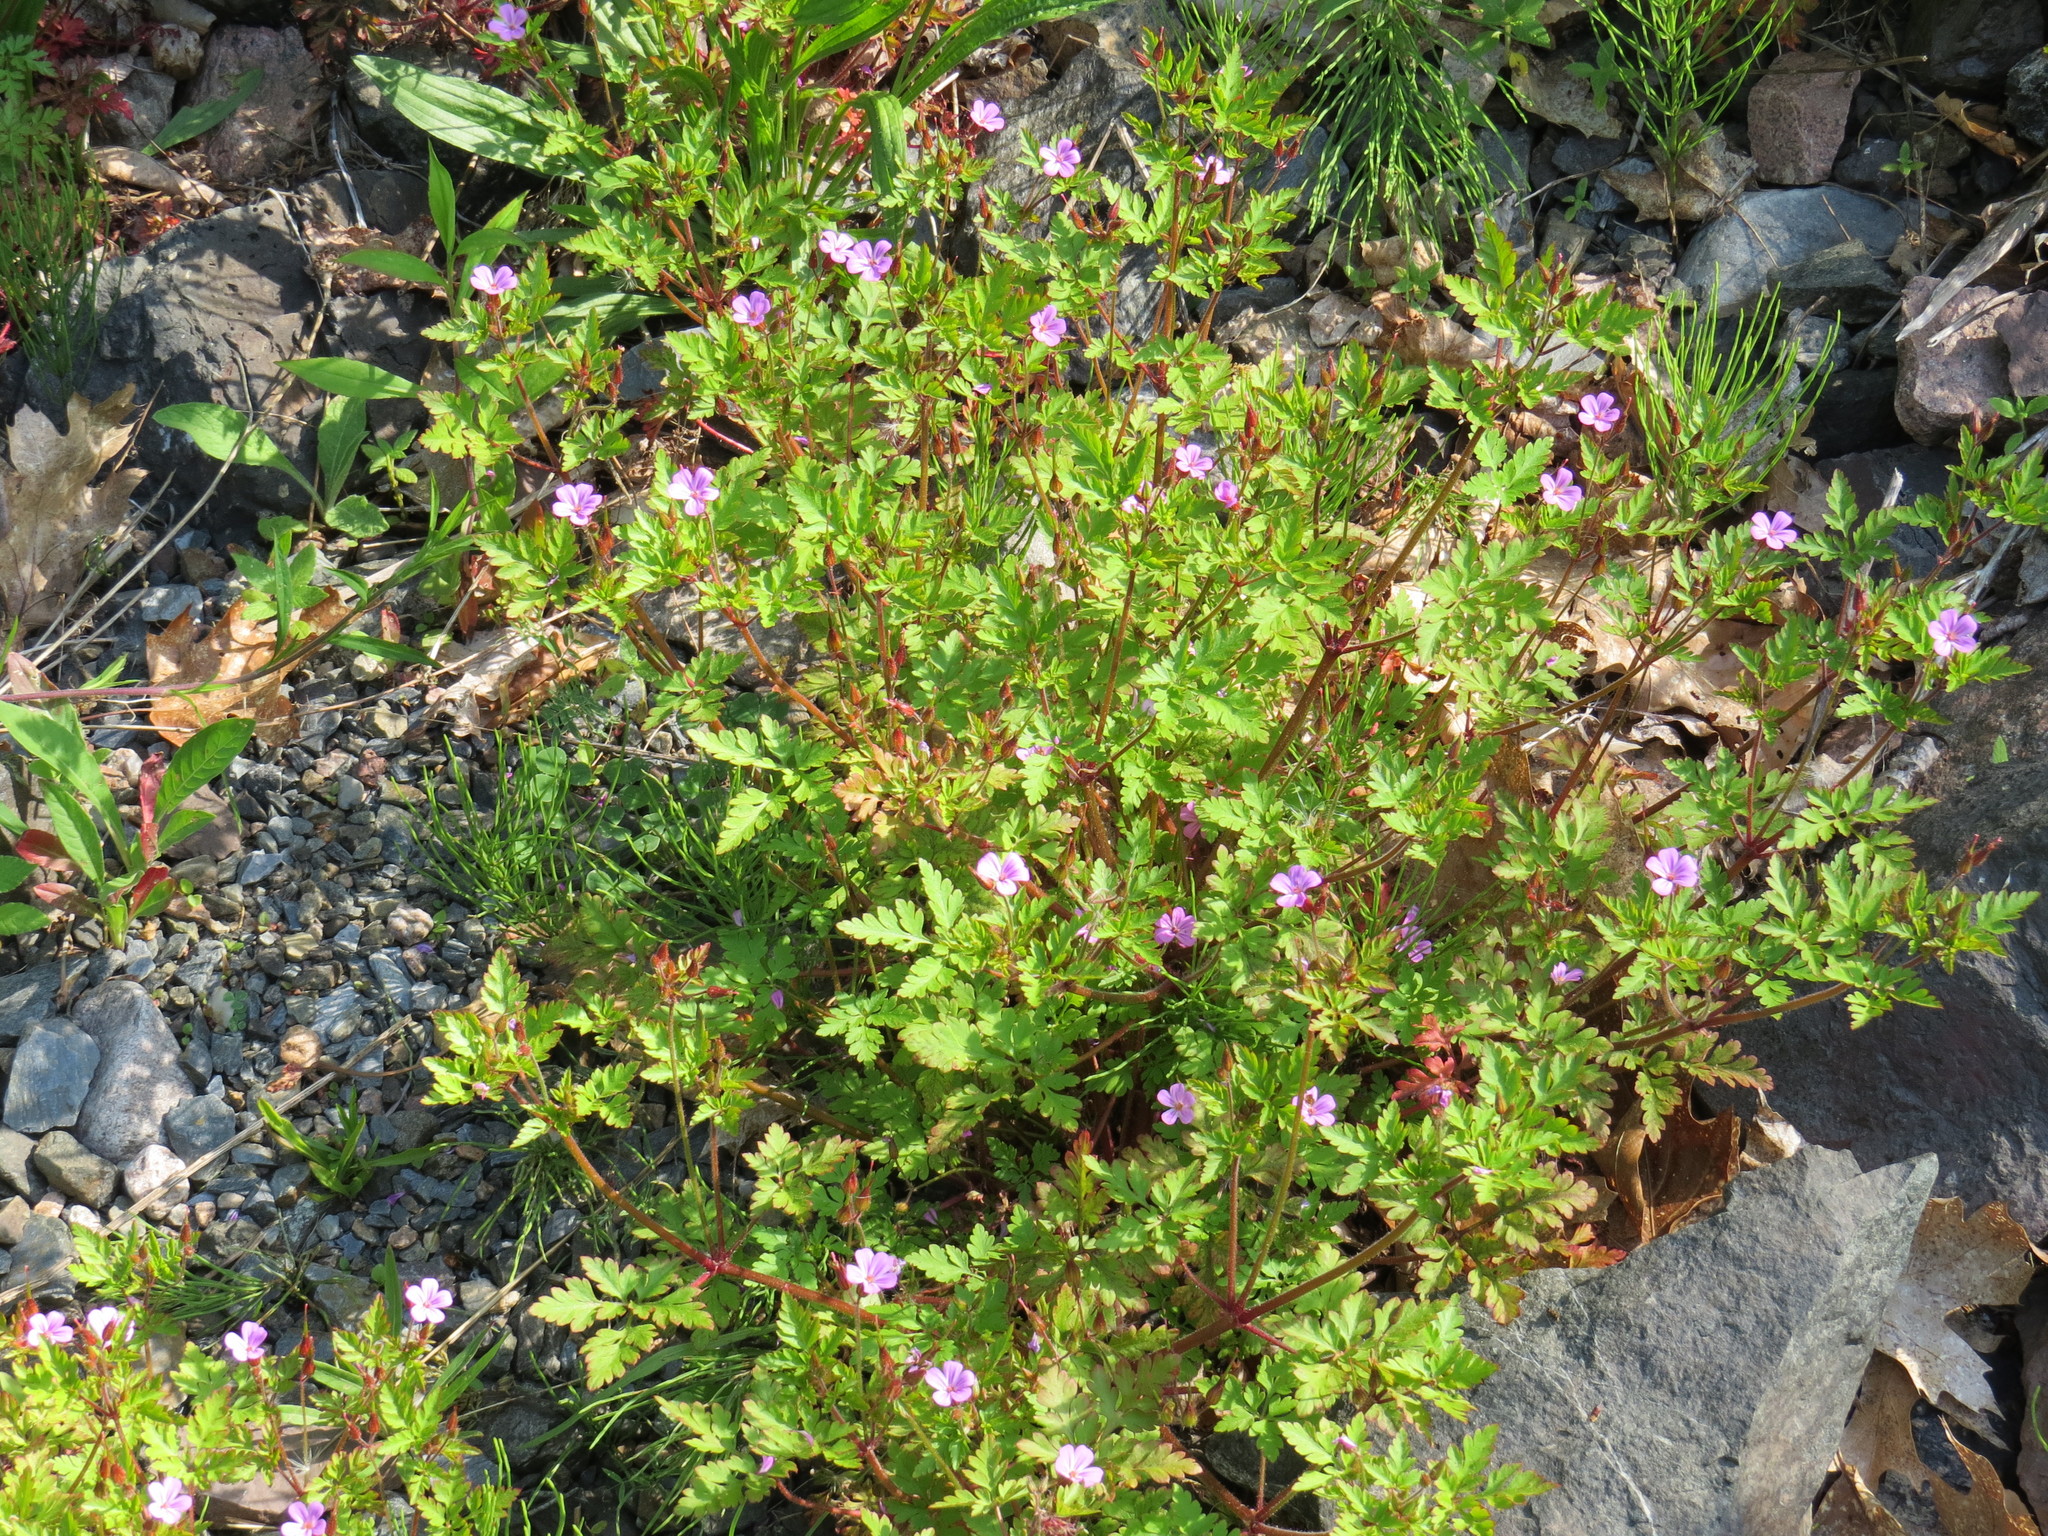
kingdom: Plantae
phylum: Tracheophyta
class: Magnoliopsida
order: Geraniales
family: Geraniaceae
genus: Geranium
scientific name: Geranium robertianum
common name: Herb-robert
